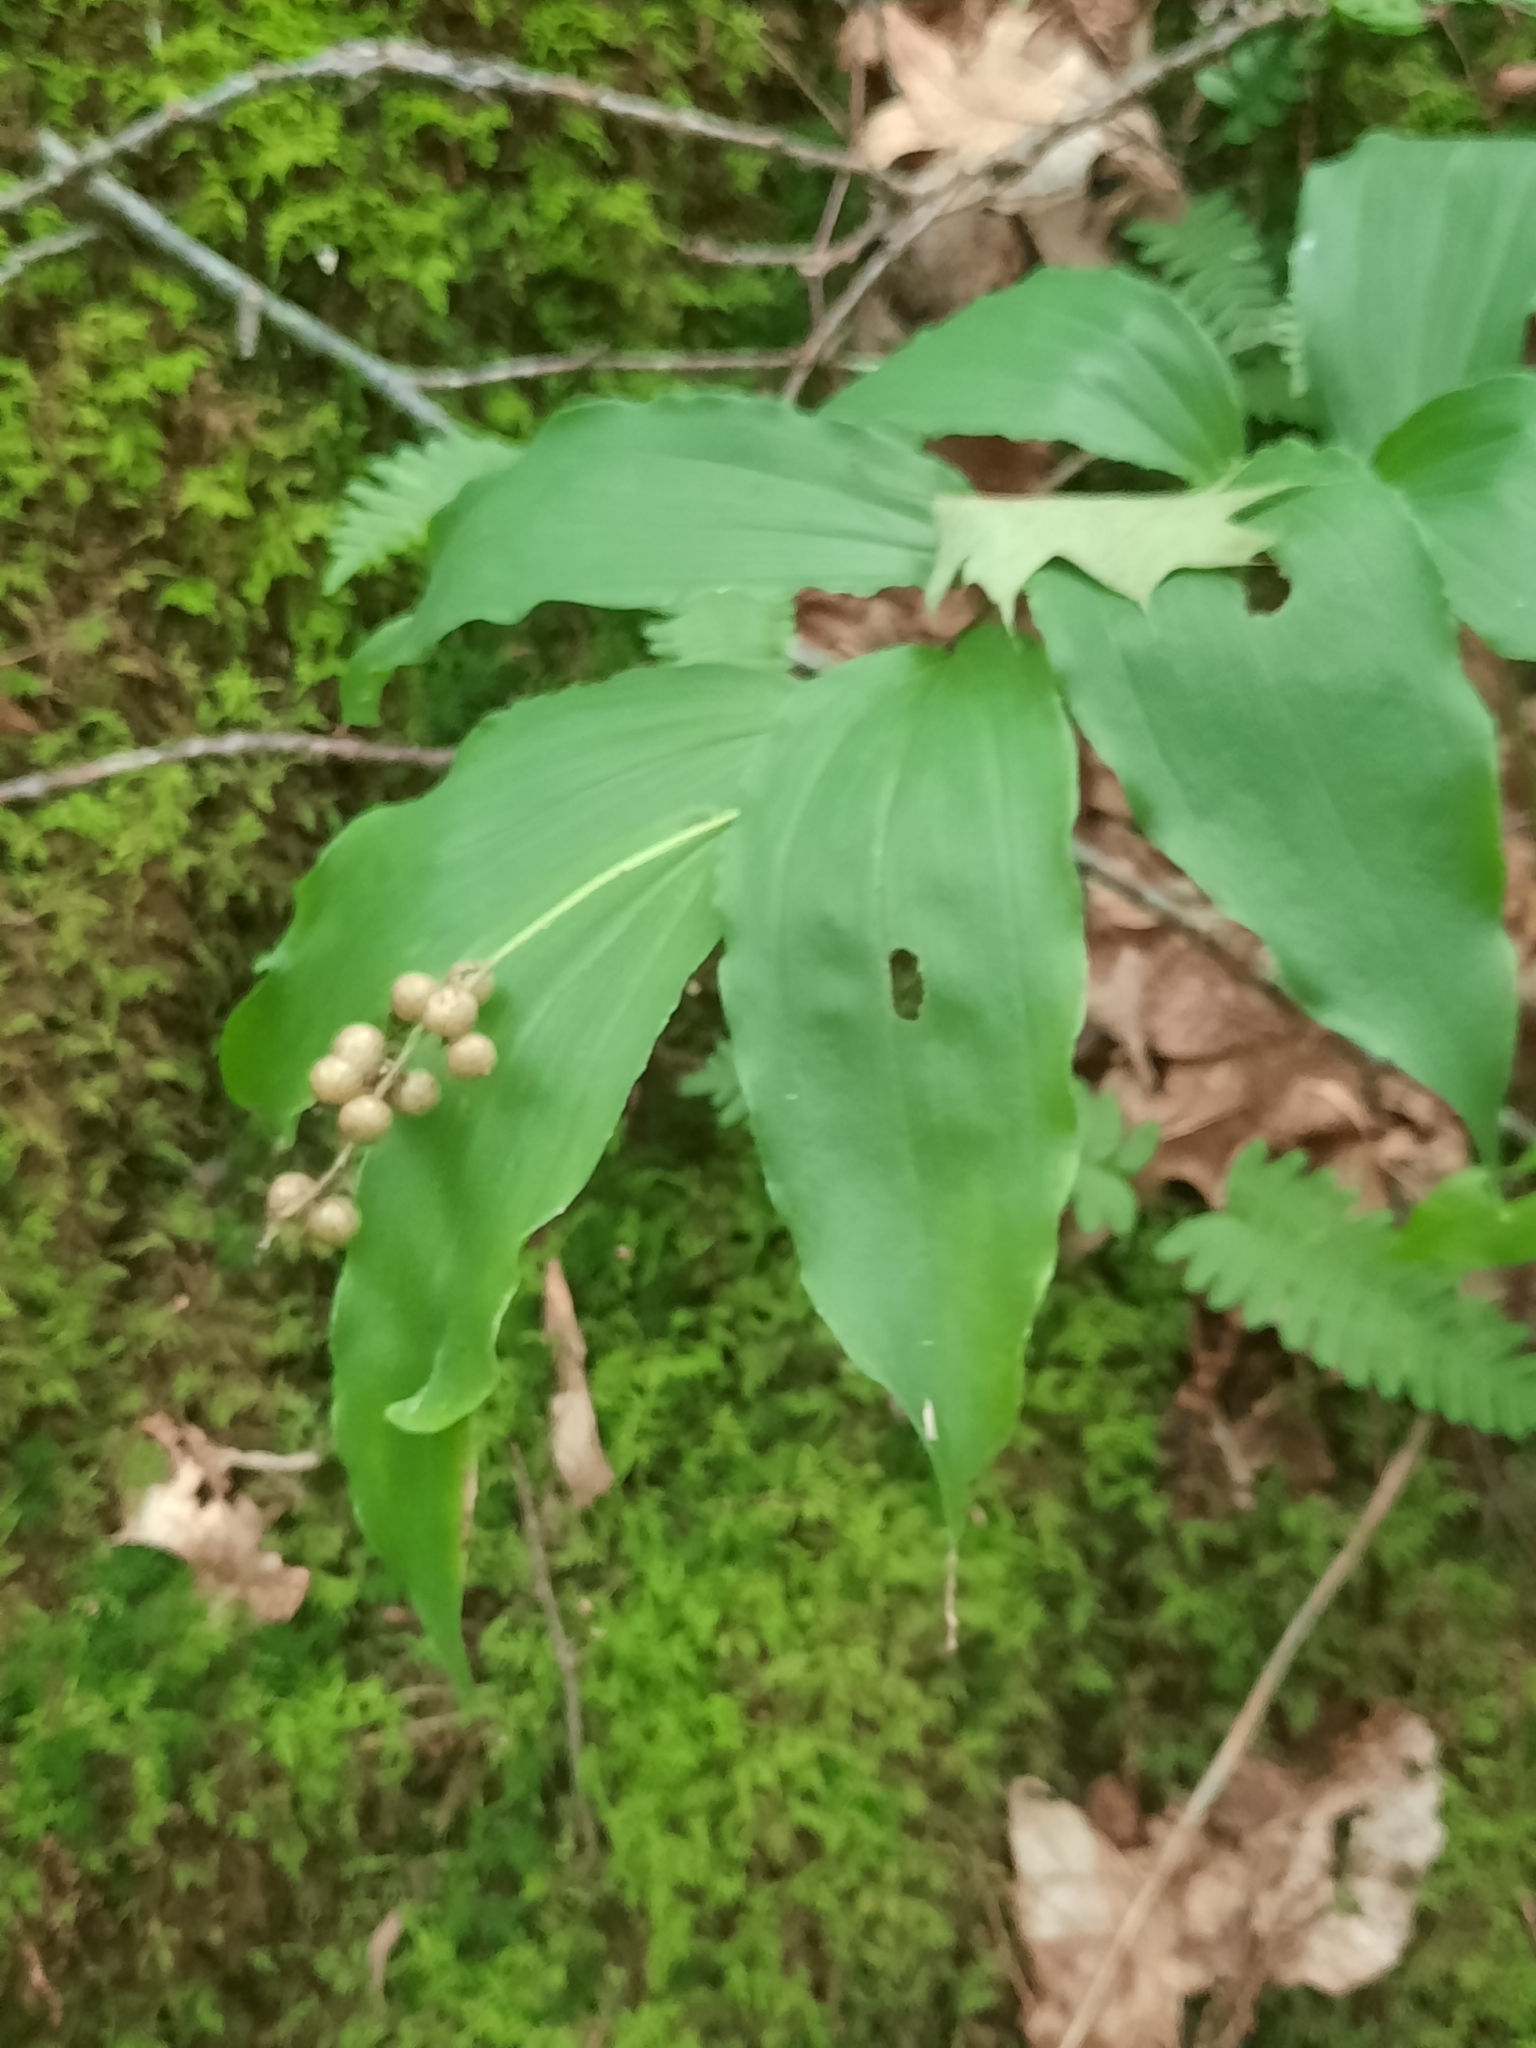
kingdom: Plantae
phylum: Tracheophyta
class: Liliopsida
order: Asparagales
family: Asparagaceae
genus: Maianthemum
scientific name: Maianthemum racemosum
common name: False spikenard
